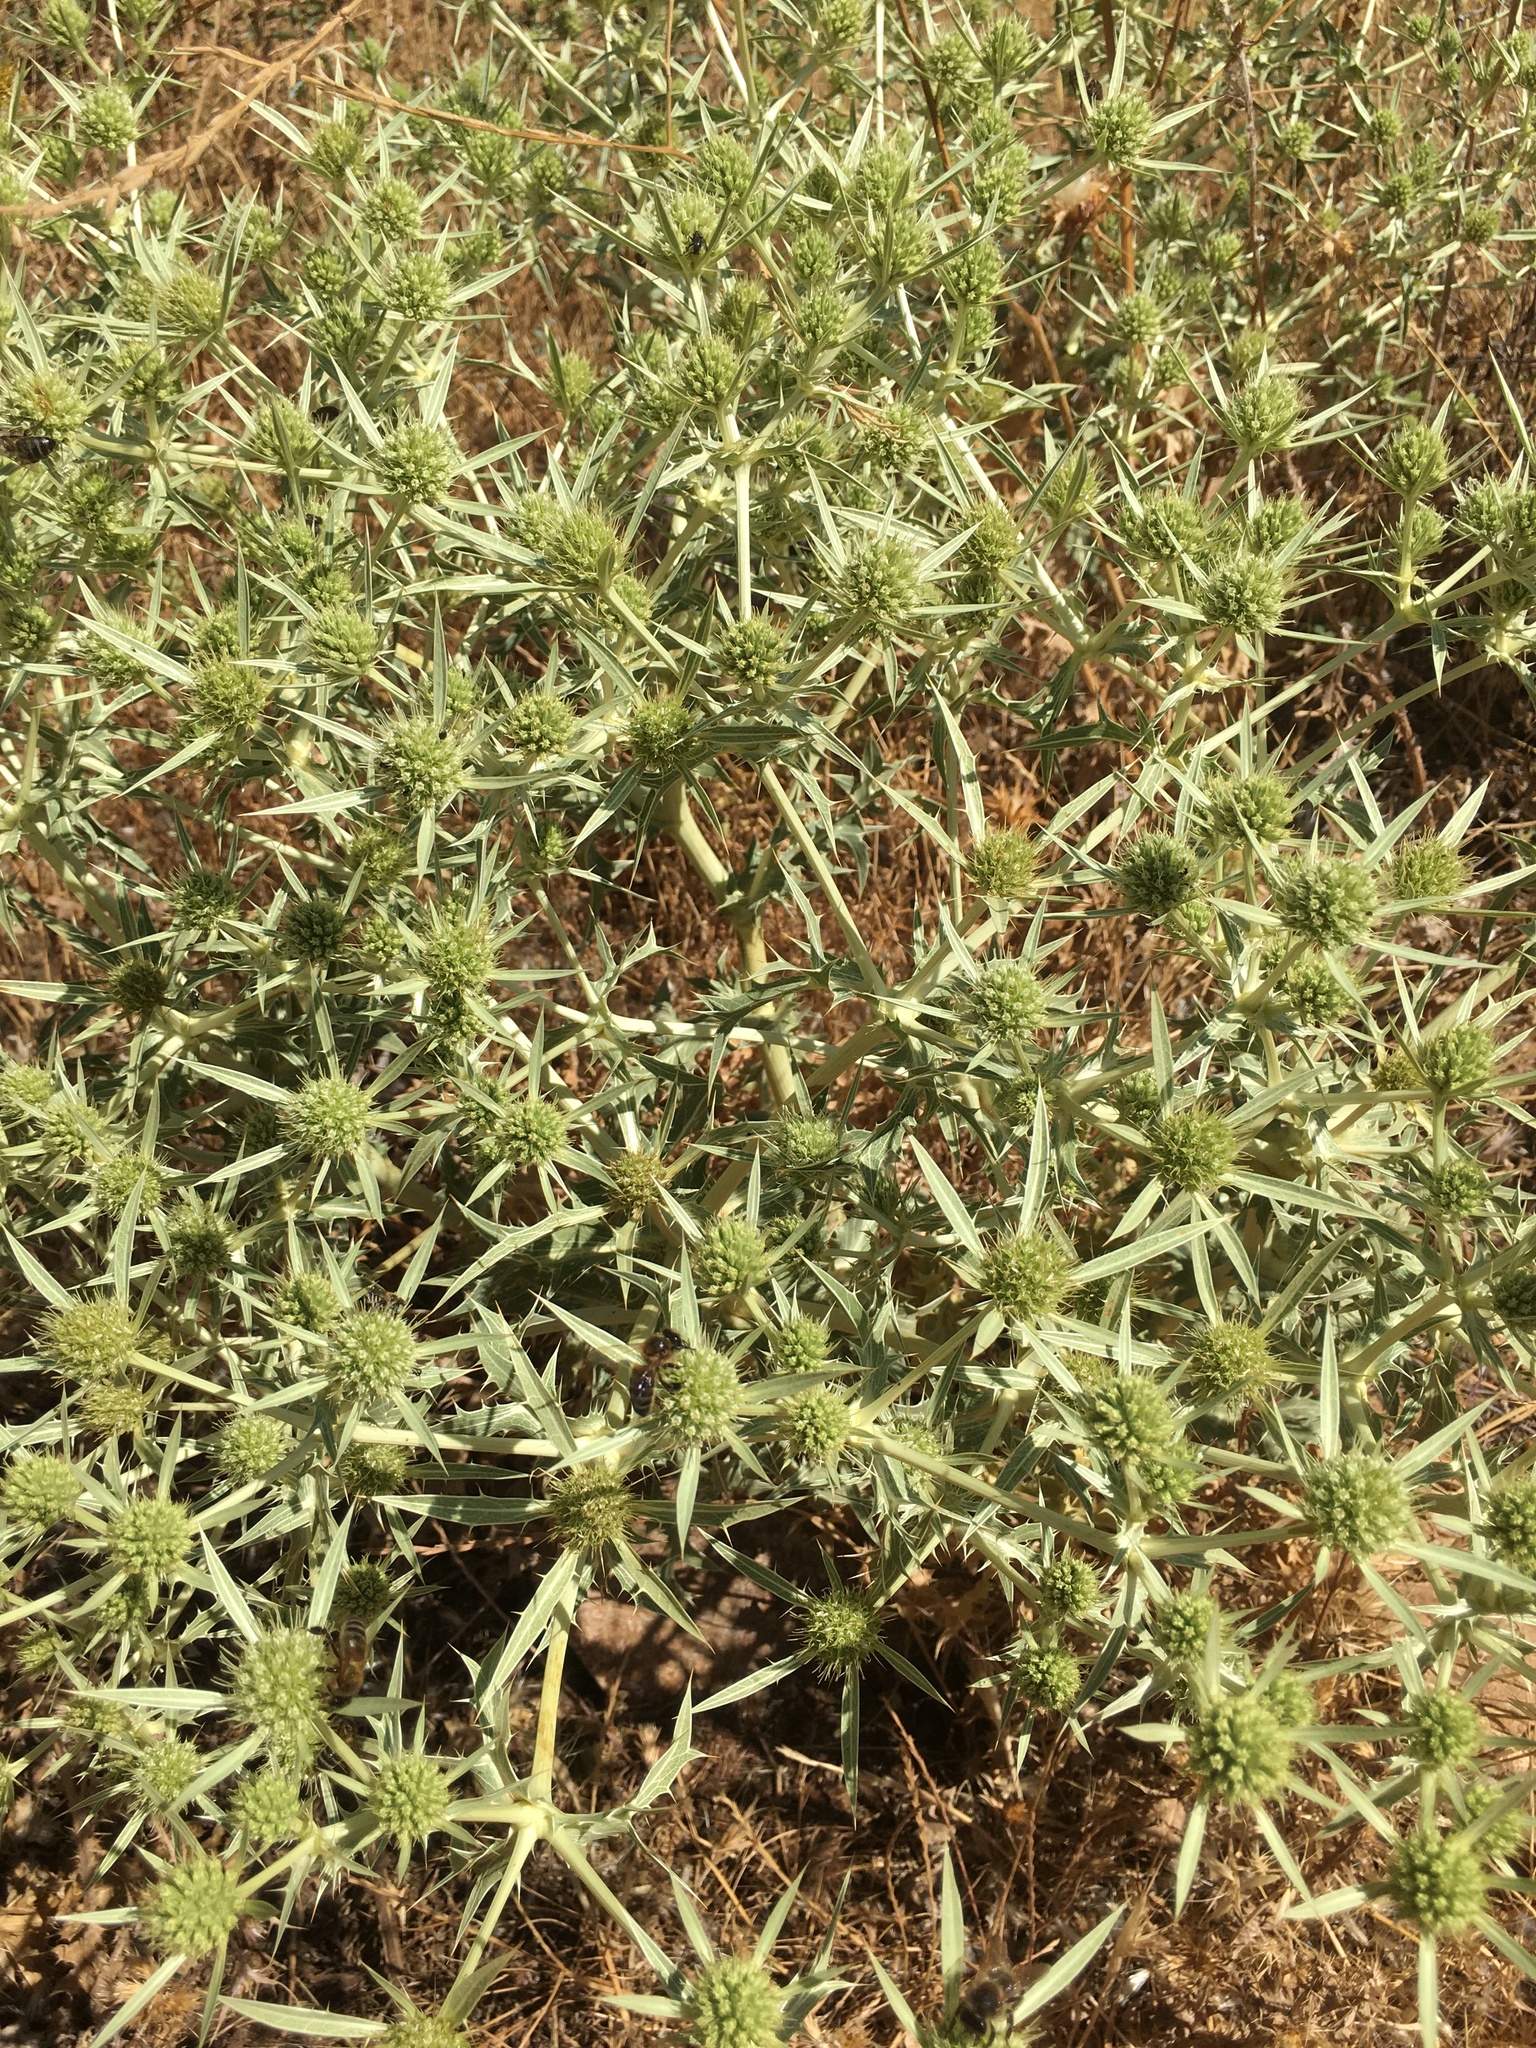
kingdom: Plantae
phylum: Tracheophyta
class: Magnoliopsida
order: Apiales
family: Apiaceae
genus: Eryngium
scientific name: Eryngium campestre
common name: Field eryngo
